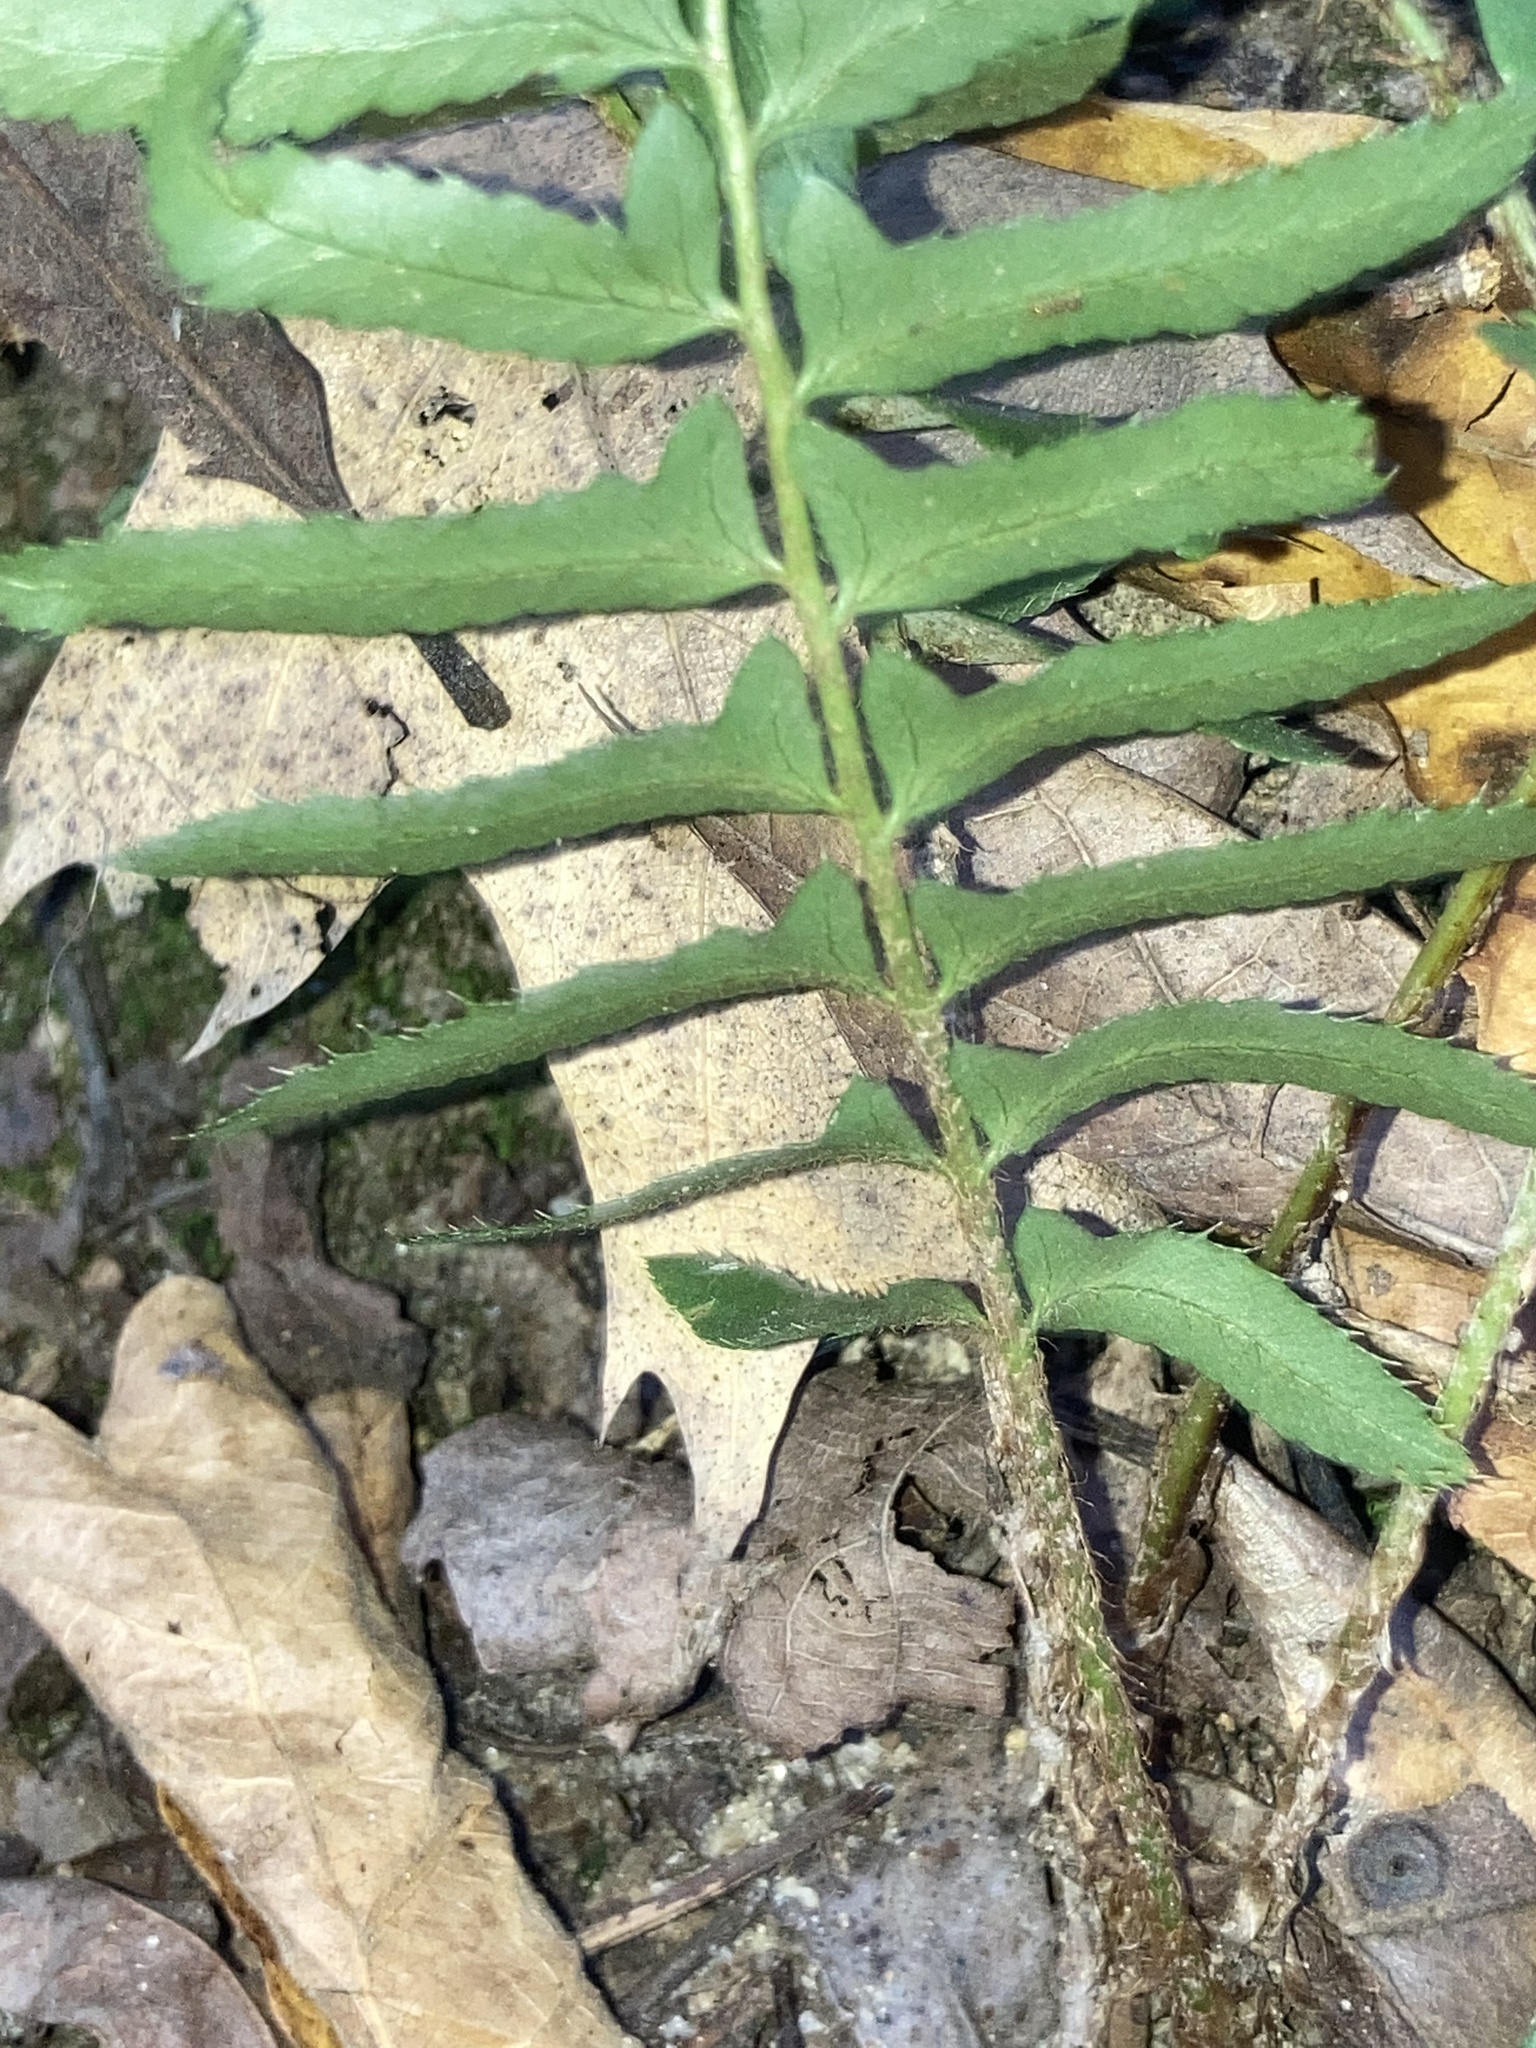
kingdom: Plantae
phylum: Tracheophyta
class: Polypodiopsida
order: Polypodiales
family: Dryopteridaceae
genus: Polystichum
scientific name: Polystichum acrostichoides
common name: Christmas fern
